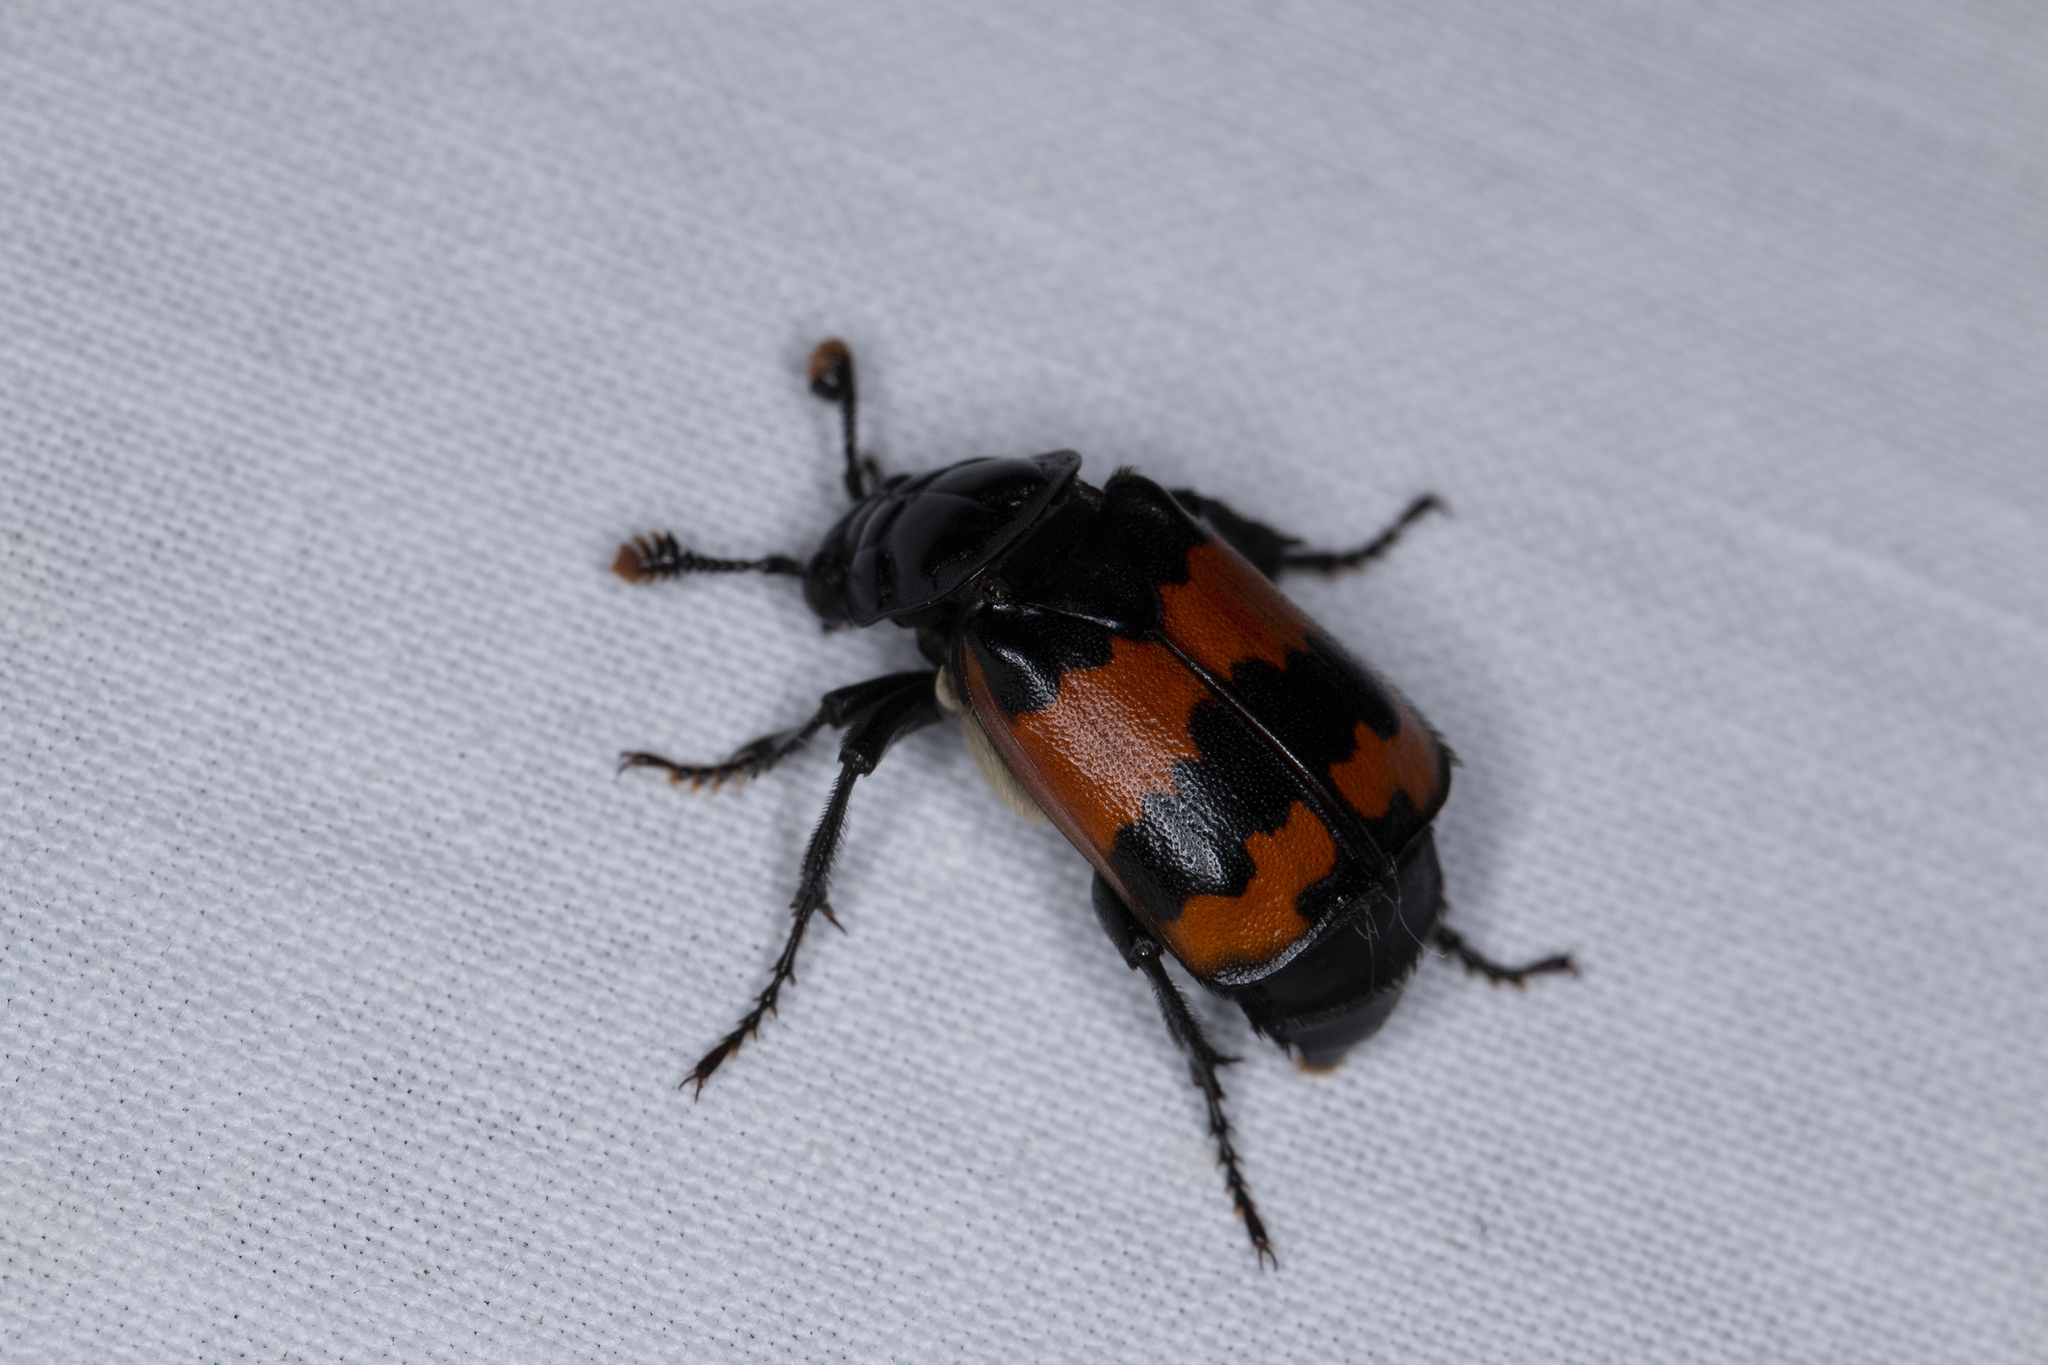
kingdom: Animalia
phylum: Arthropoda
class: Insecta
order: Coleoptera
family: Staphylinidae
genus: Nicrophorus
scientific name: Nicrophorus investigator
